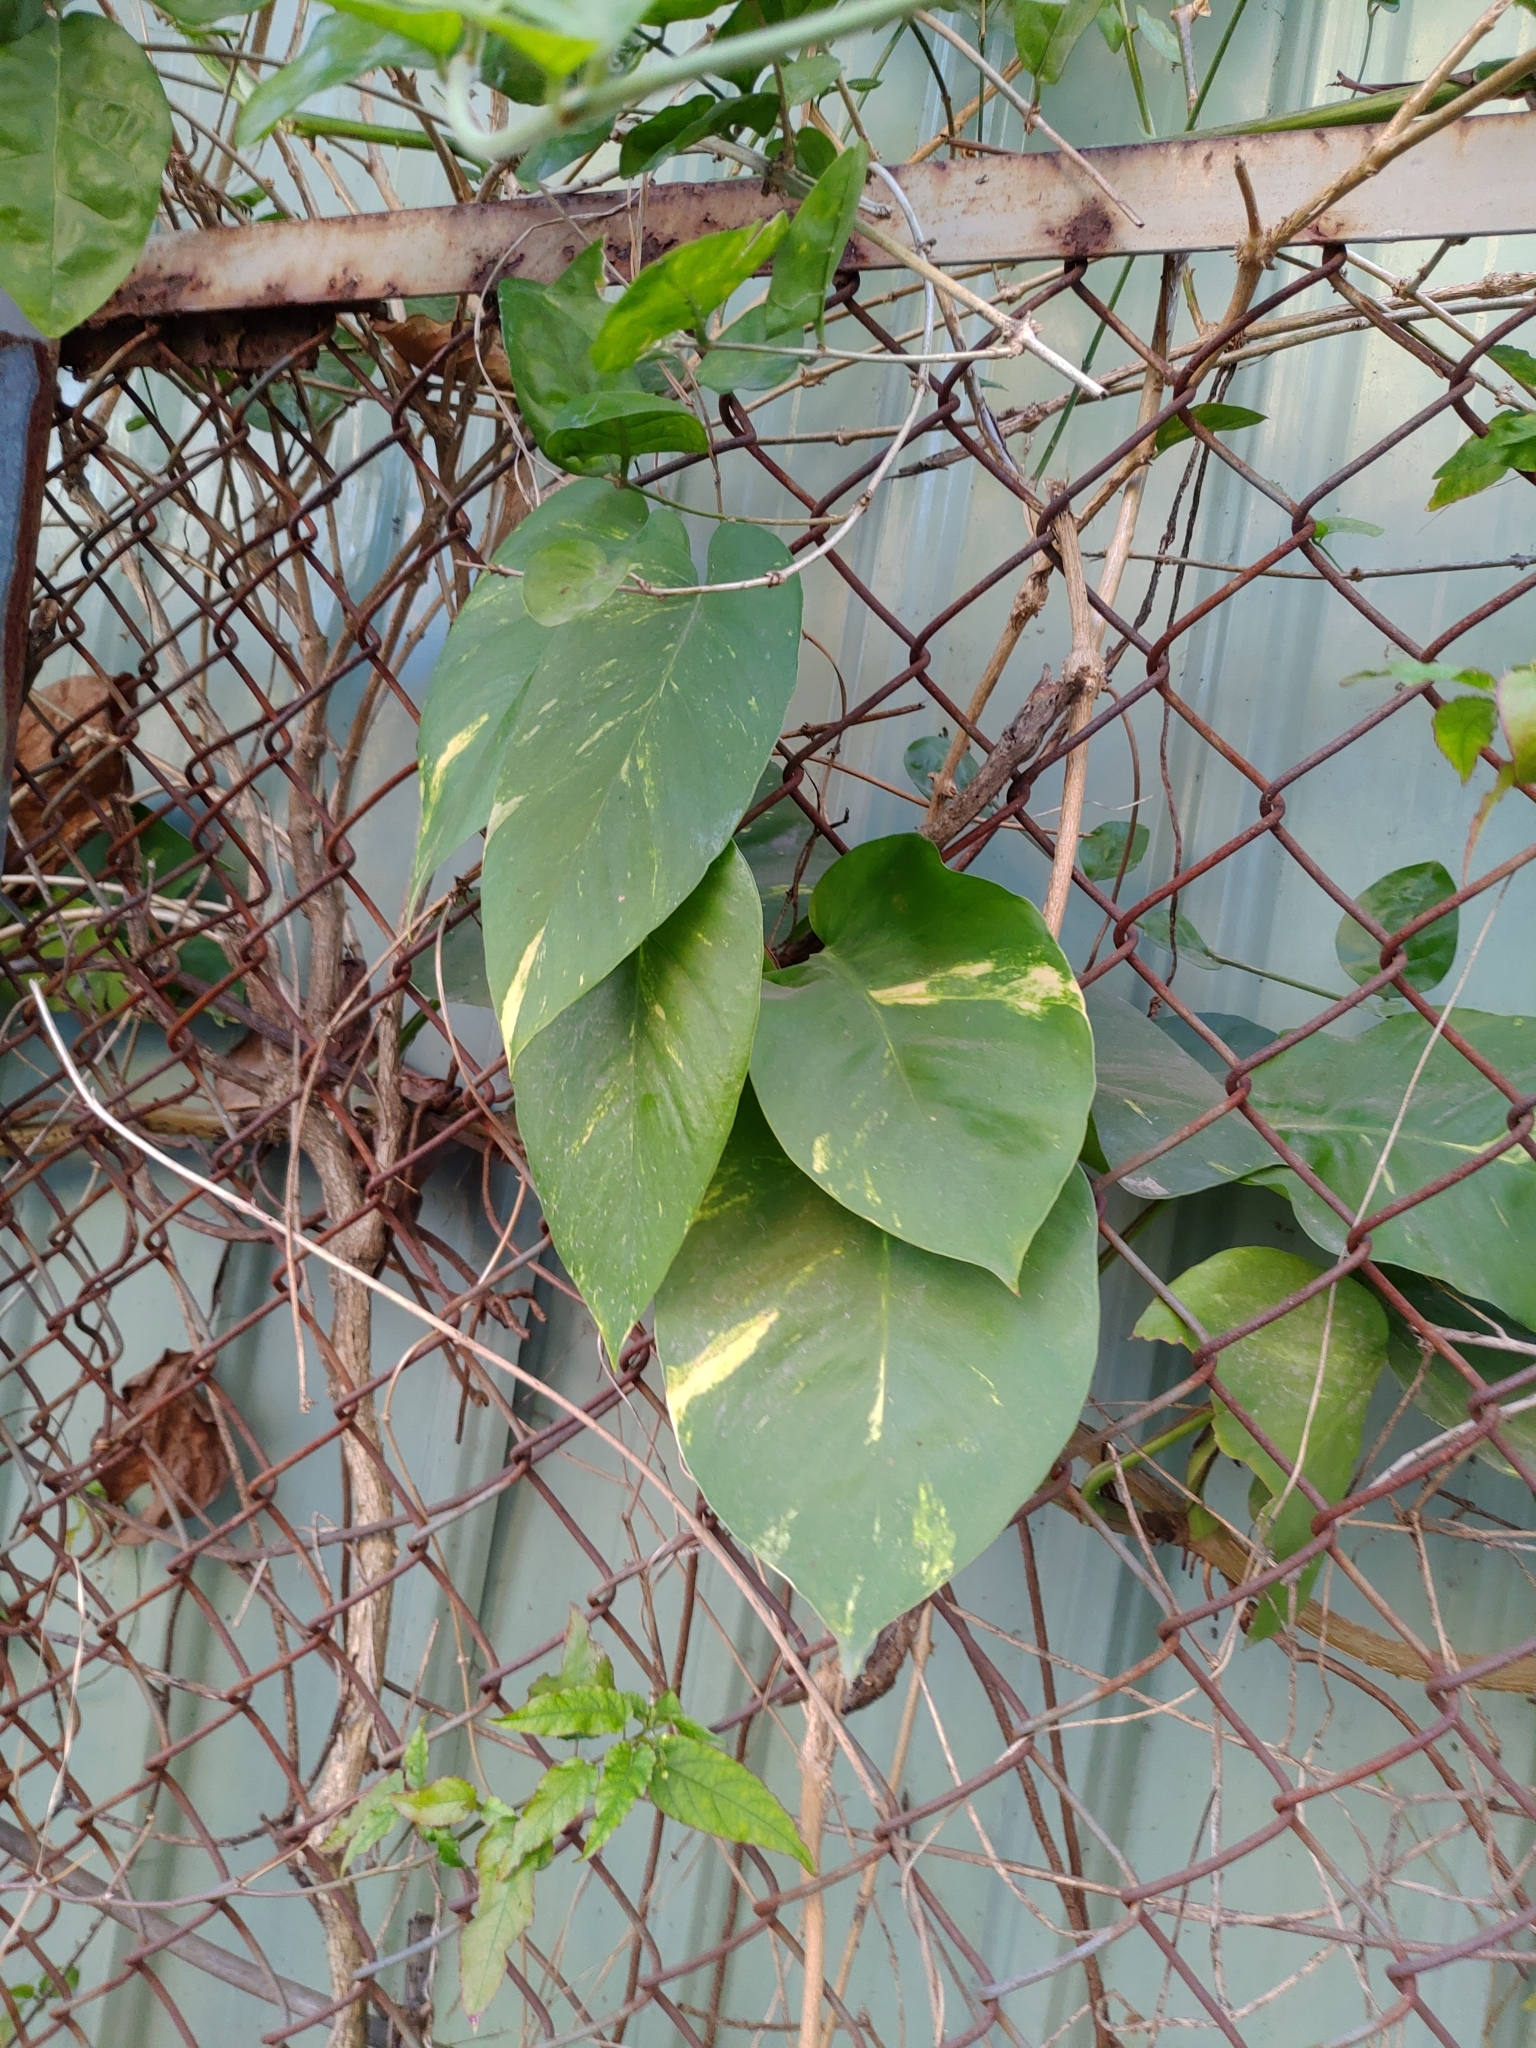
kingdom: Plantae
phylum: Tracheophyta
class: Liliopsida
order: Alismatales
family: Araceae
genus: Epipremnum
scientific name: Epipremnum aureum
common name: Golden hunter's-robe
